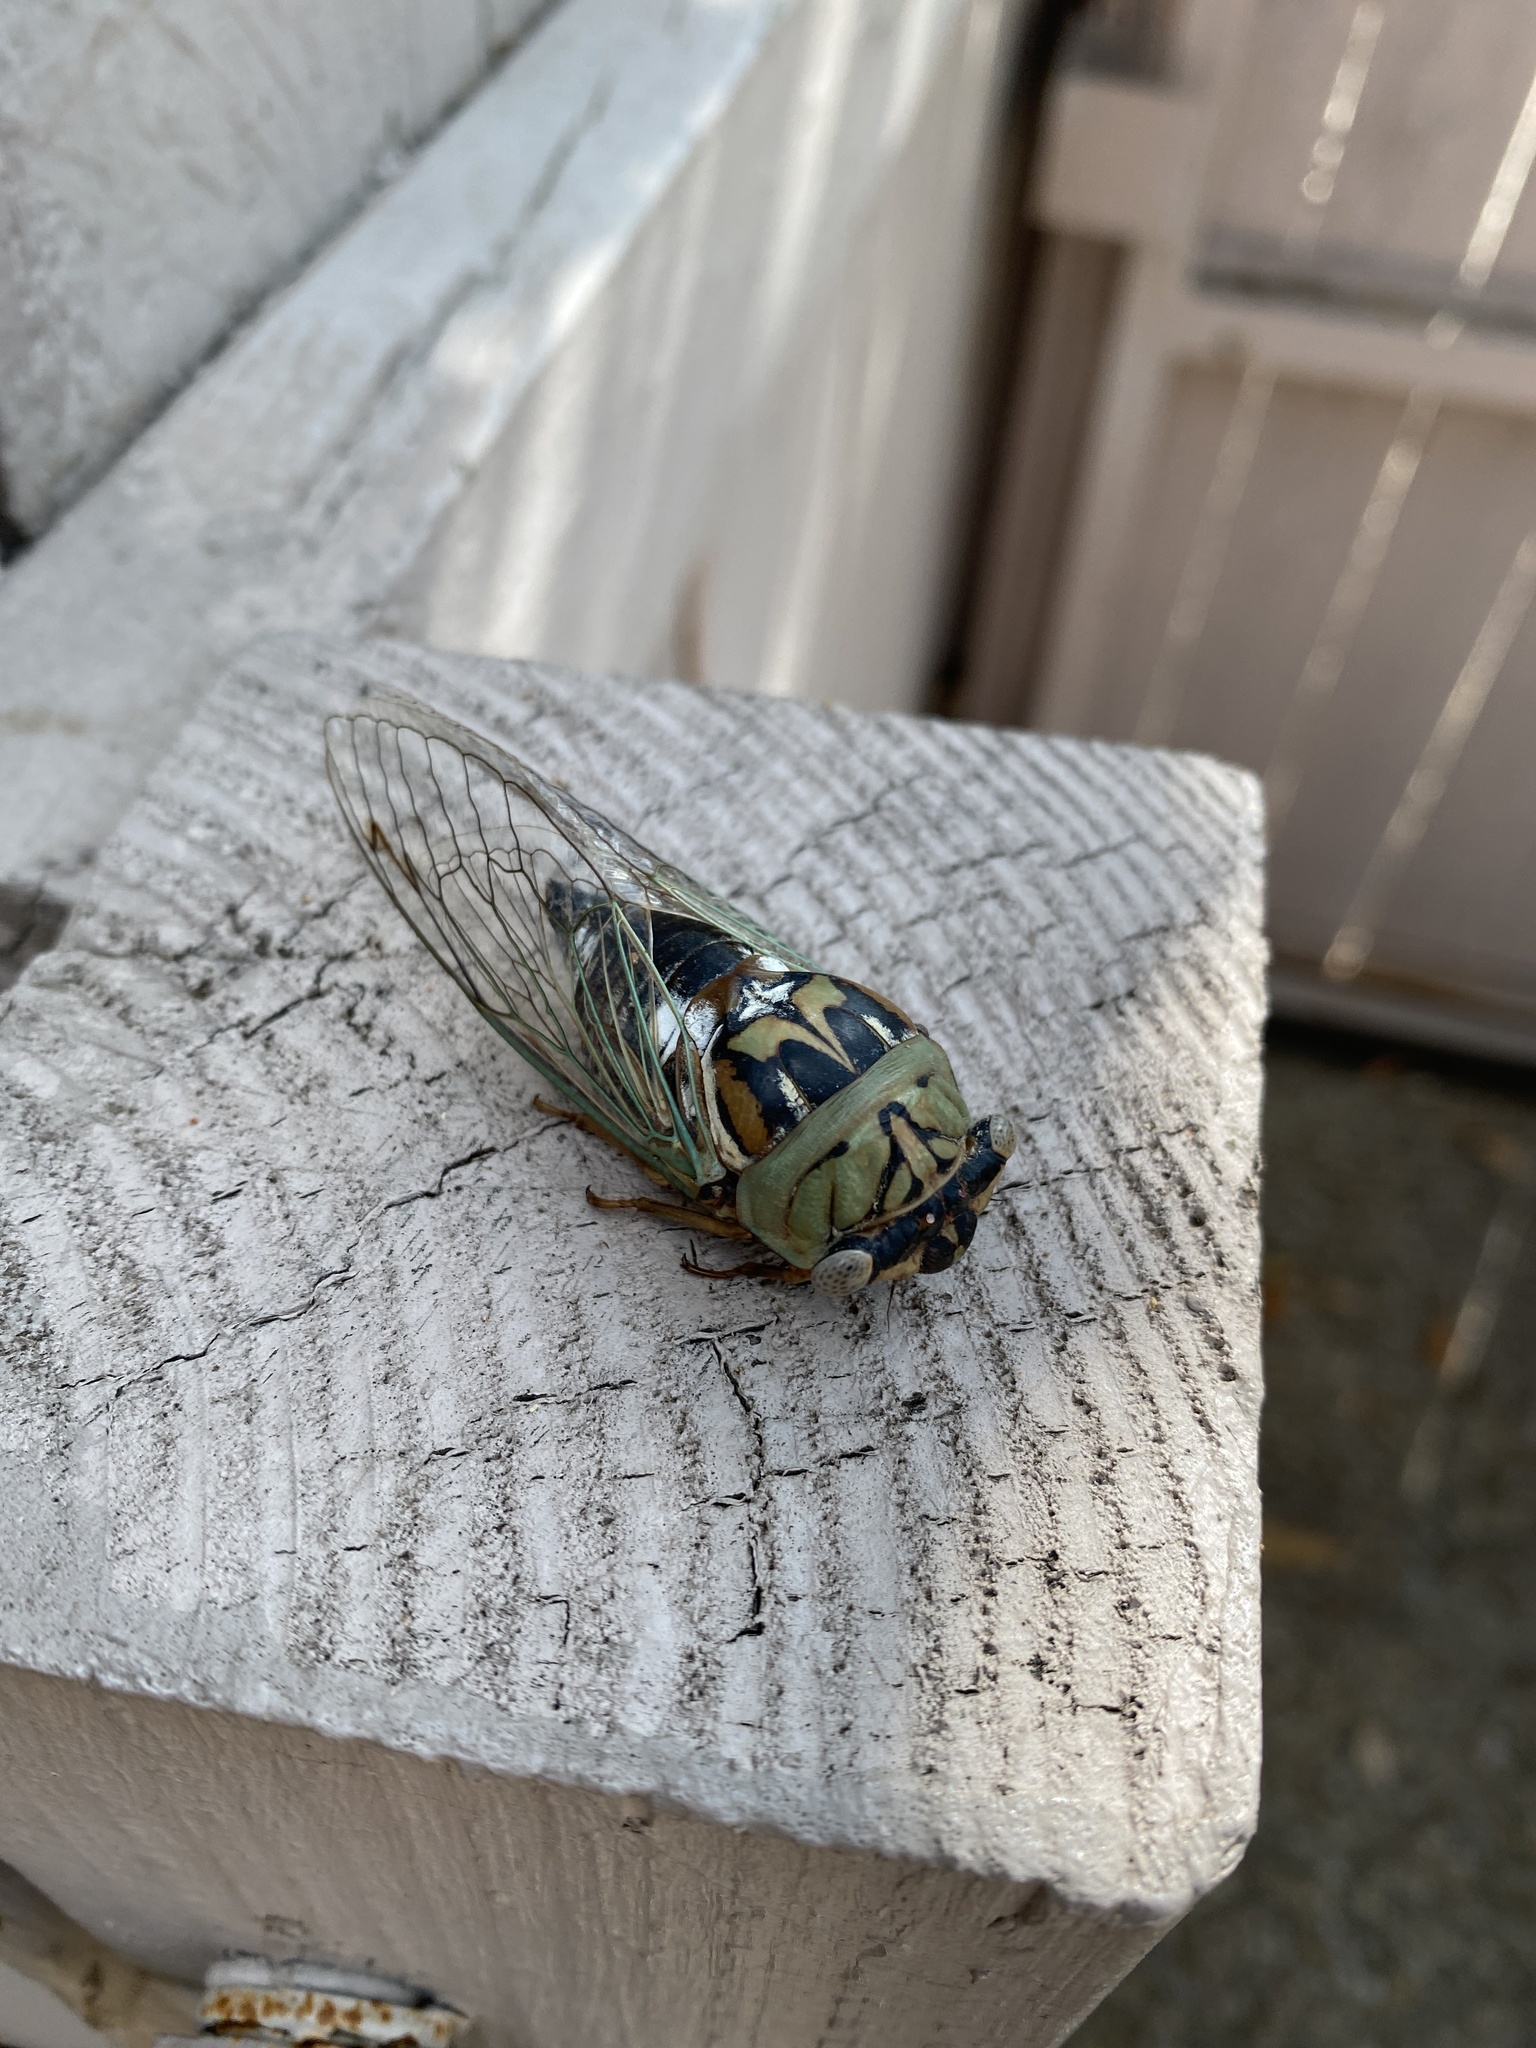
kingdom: Animalia
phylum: Arthropoda
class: Insecta
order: Hemiptera
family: Cicadidae
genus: Megatibicen
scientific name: Megatibicen resh
